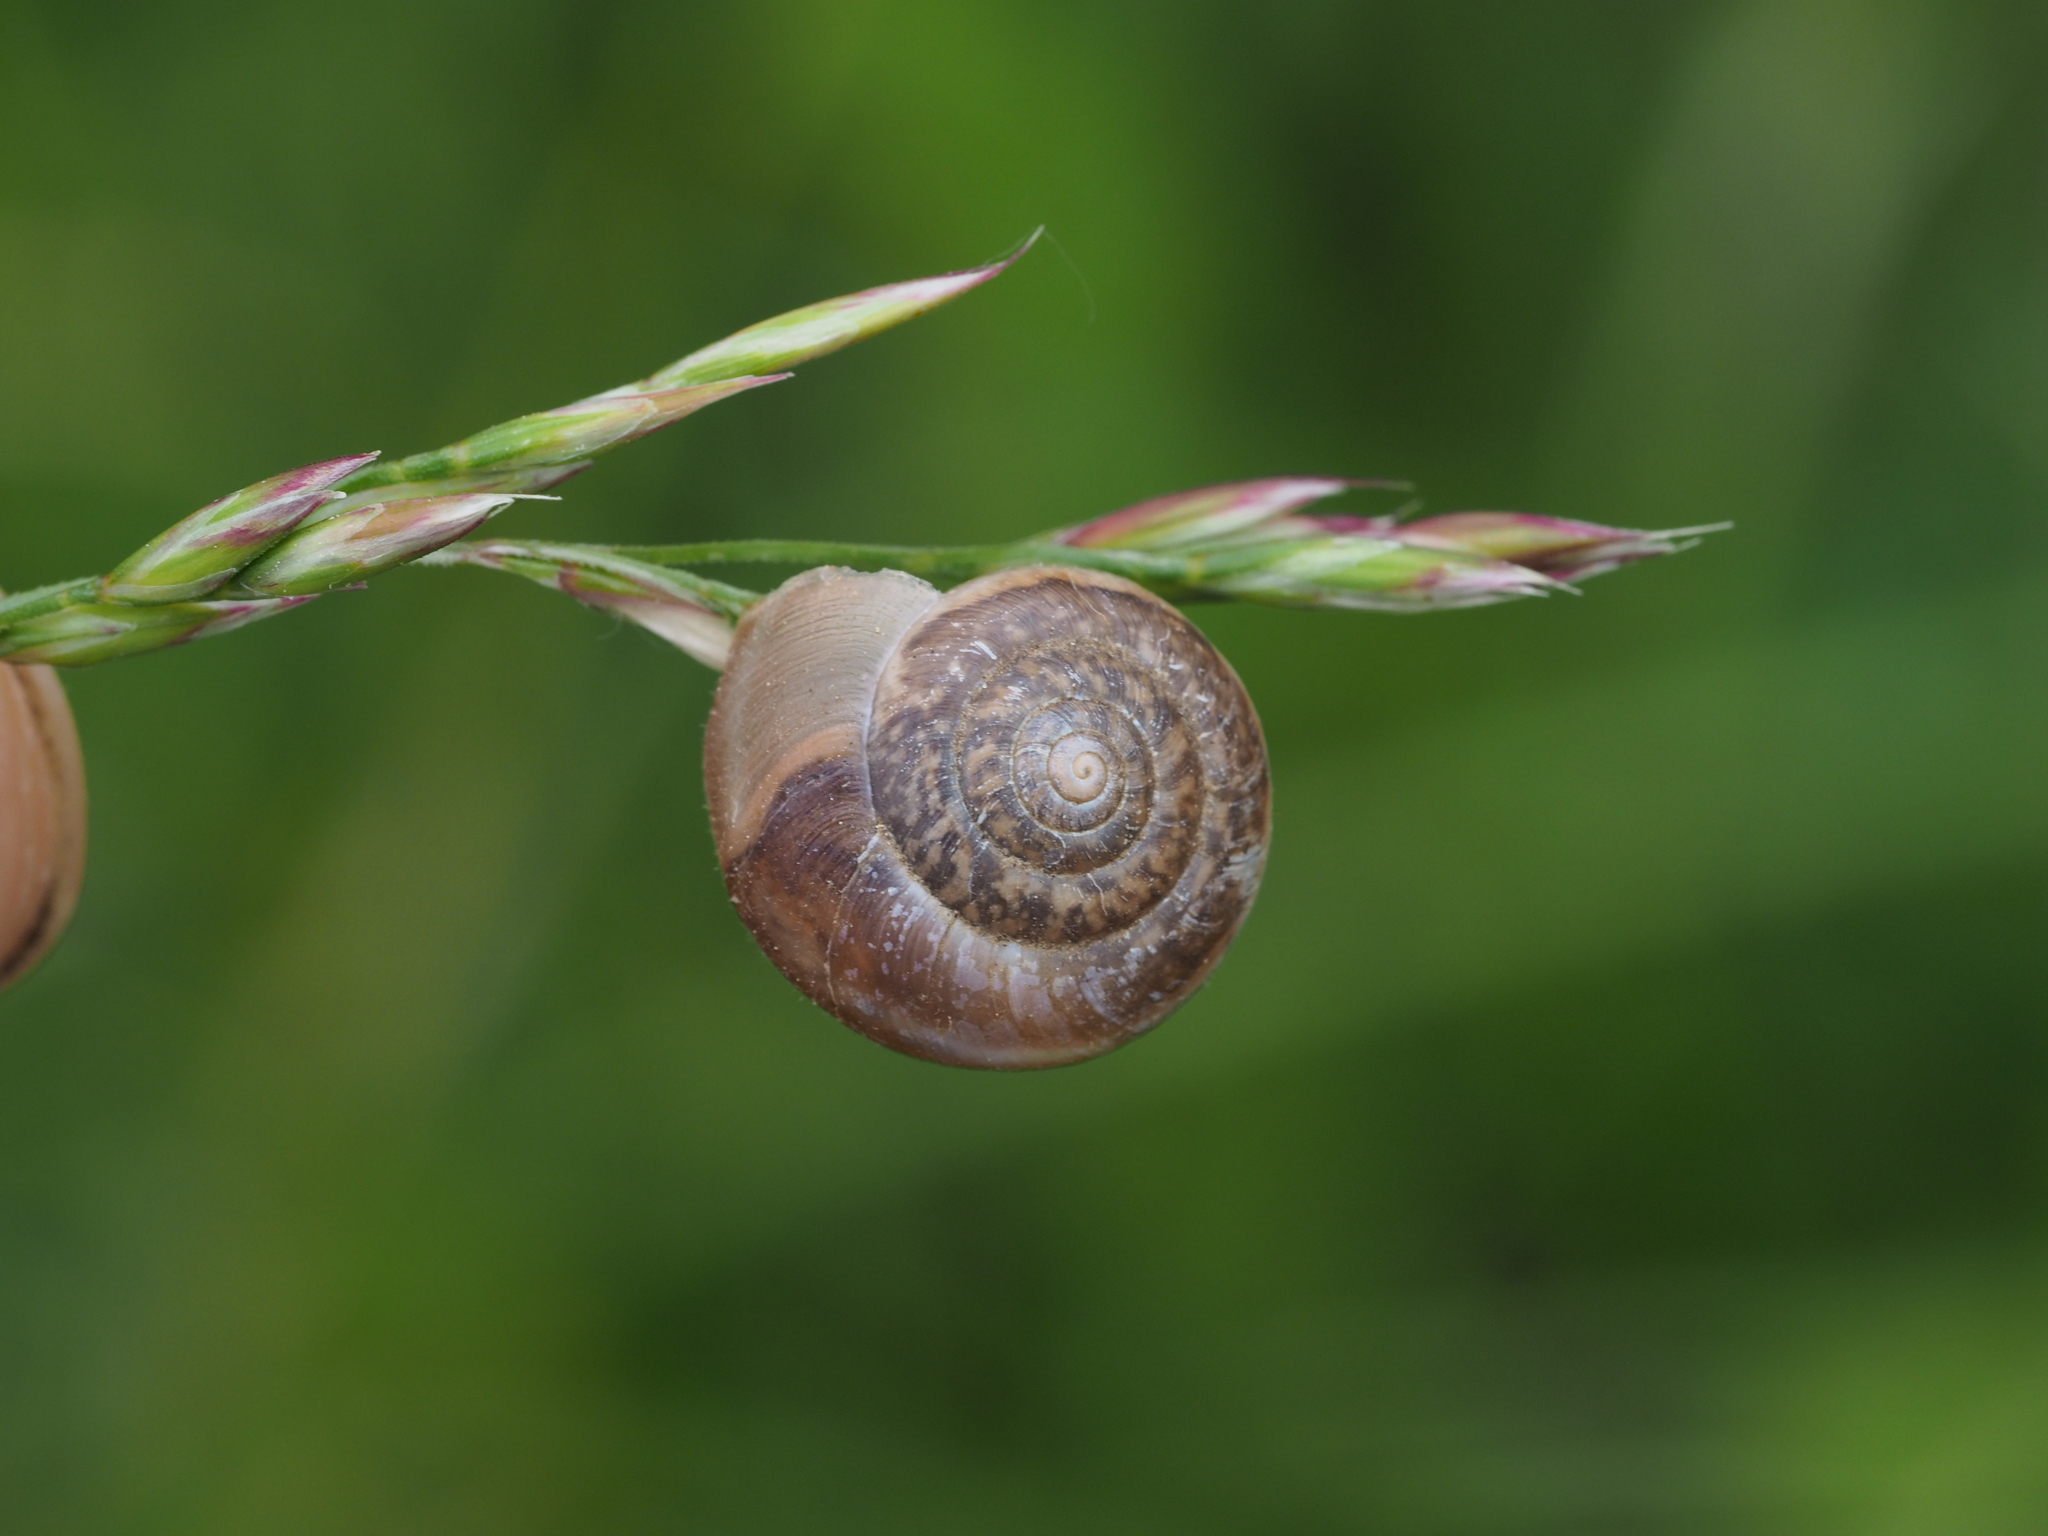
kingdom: Animalia
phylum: Mollusca
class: Gastropoda
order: Stylommatophora
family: Hygromiidae
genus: Euomphalia
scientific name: Euomphalia strigella
